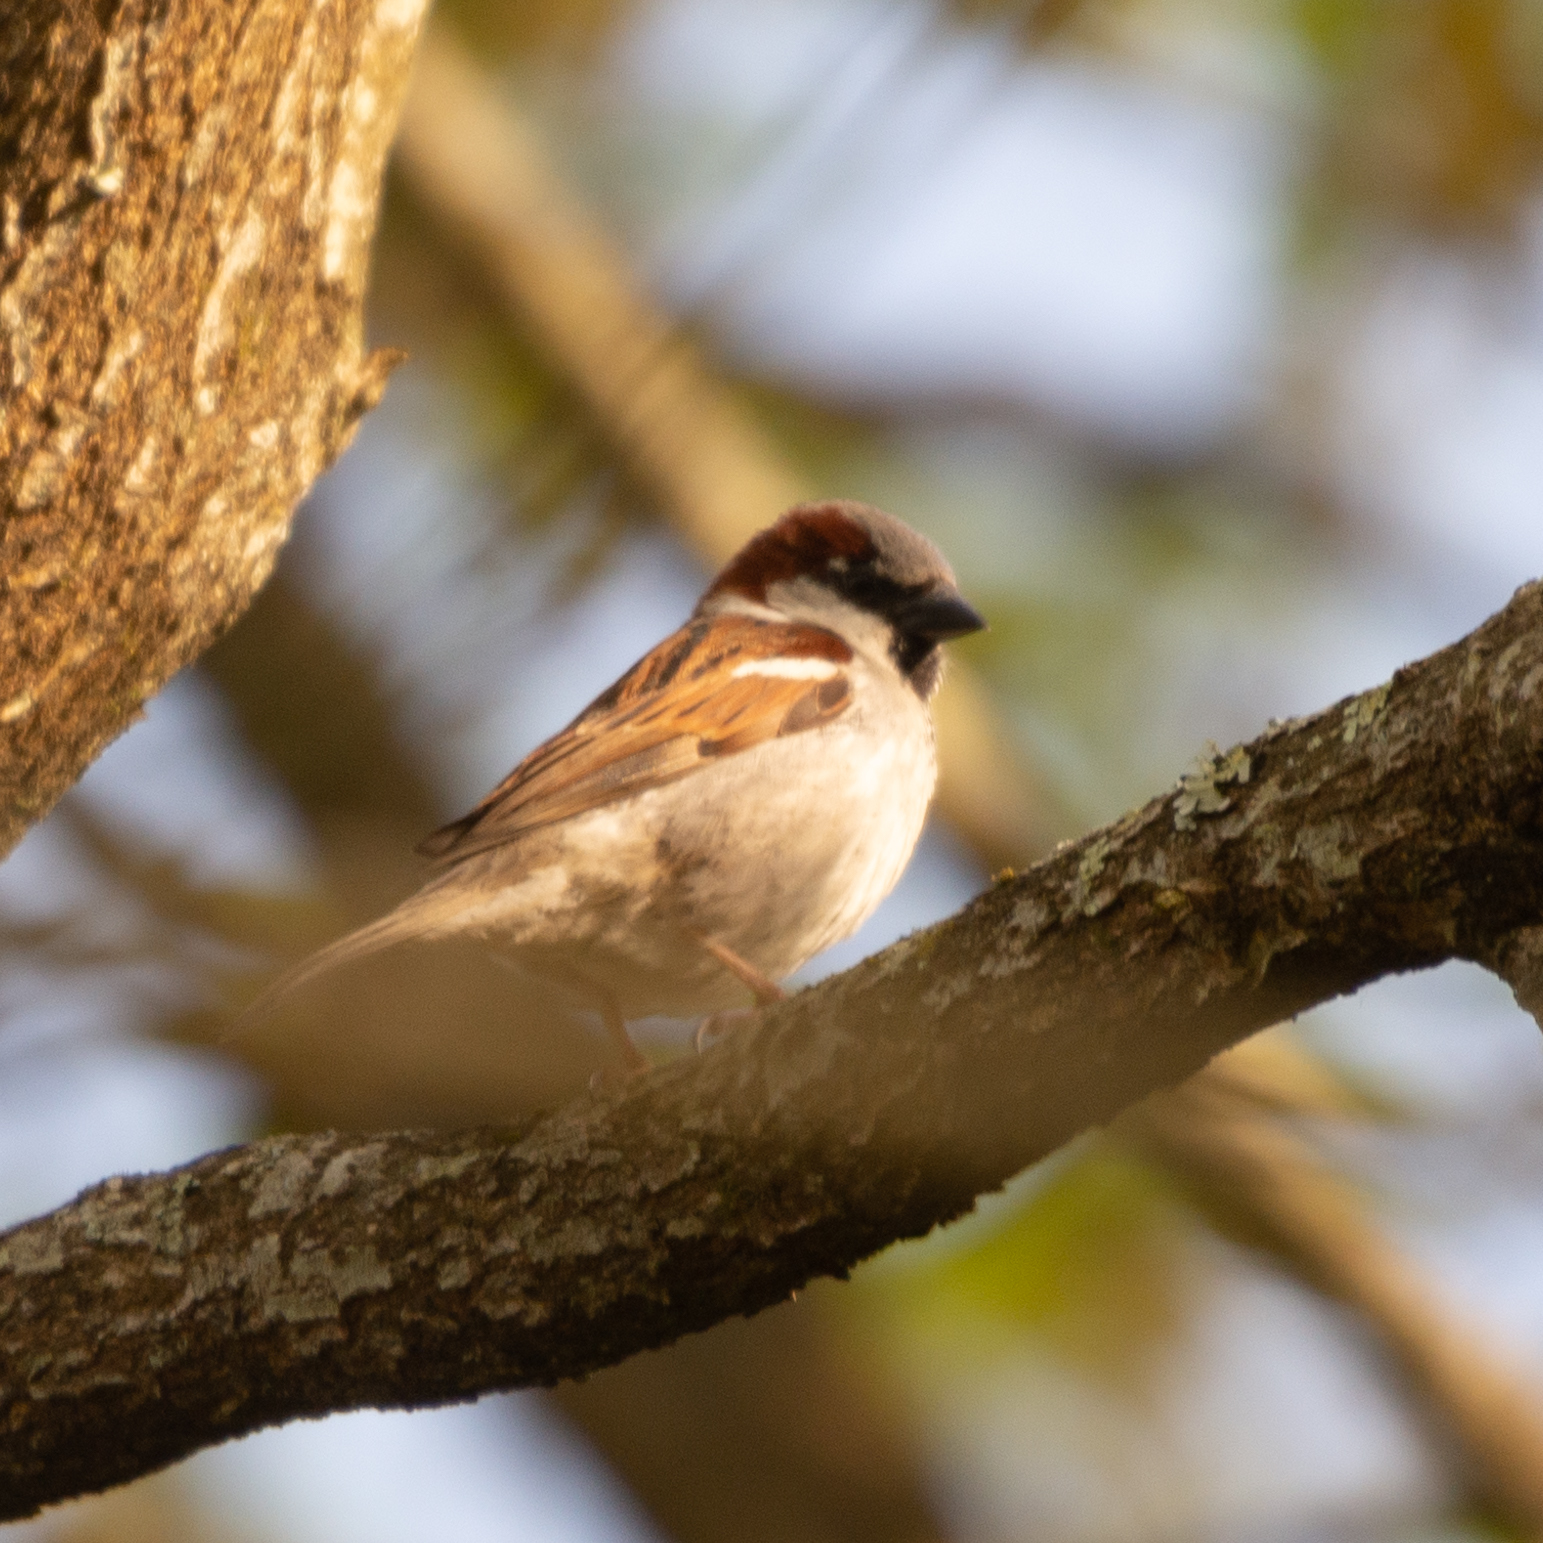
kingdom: Animalia
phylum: Chordata
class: Aves
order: Passeriformes
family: Passeridae
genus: Passer
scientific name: Passer domesticus
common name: House sparrow
